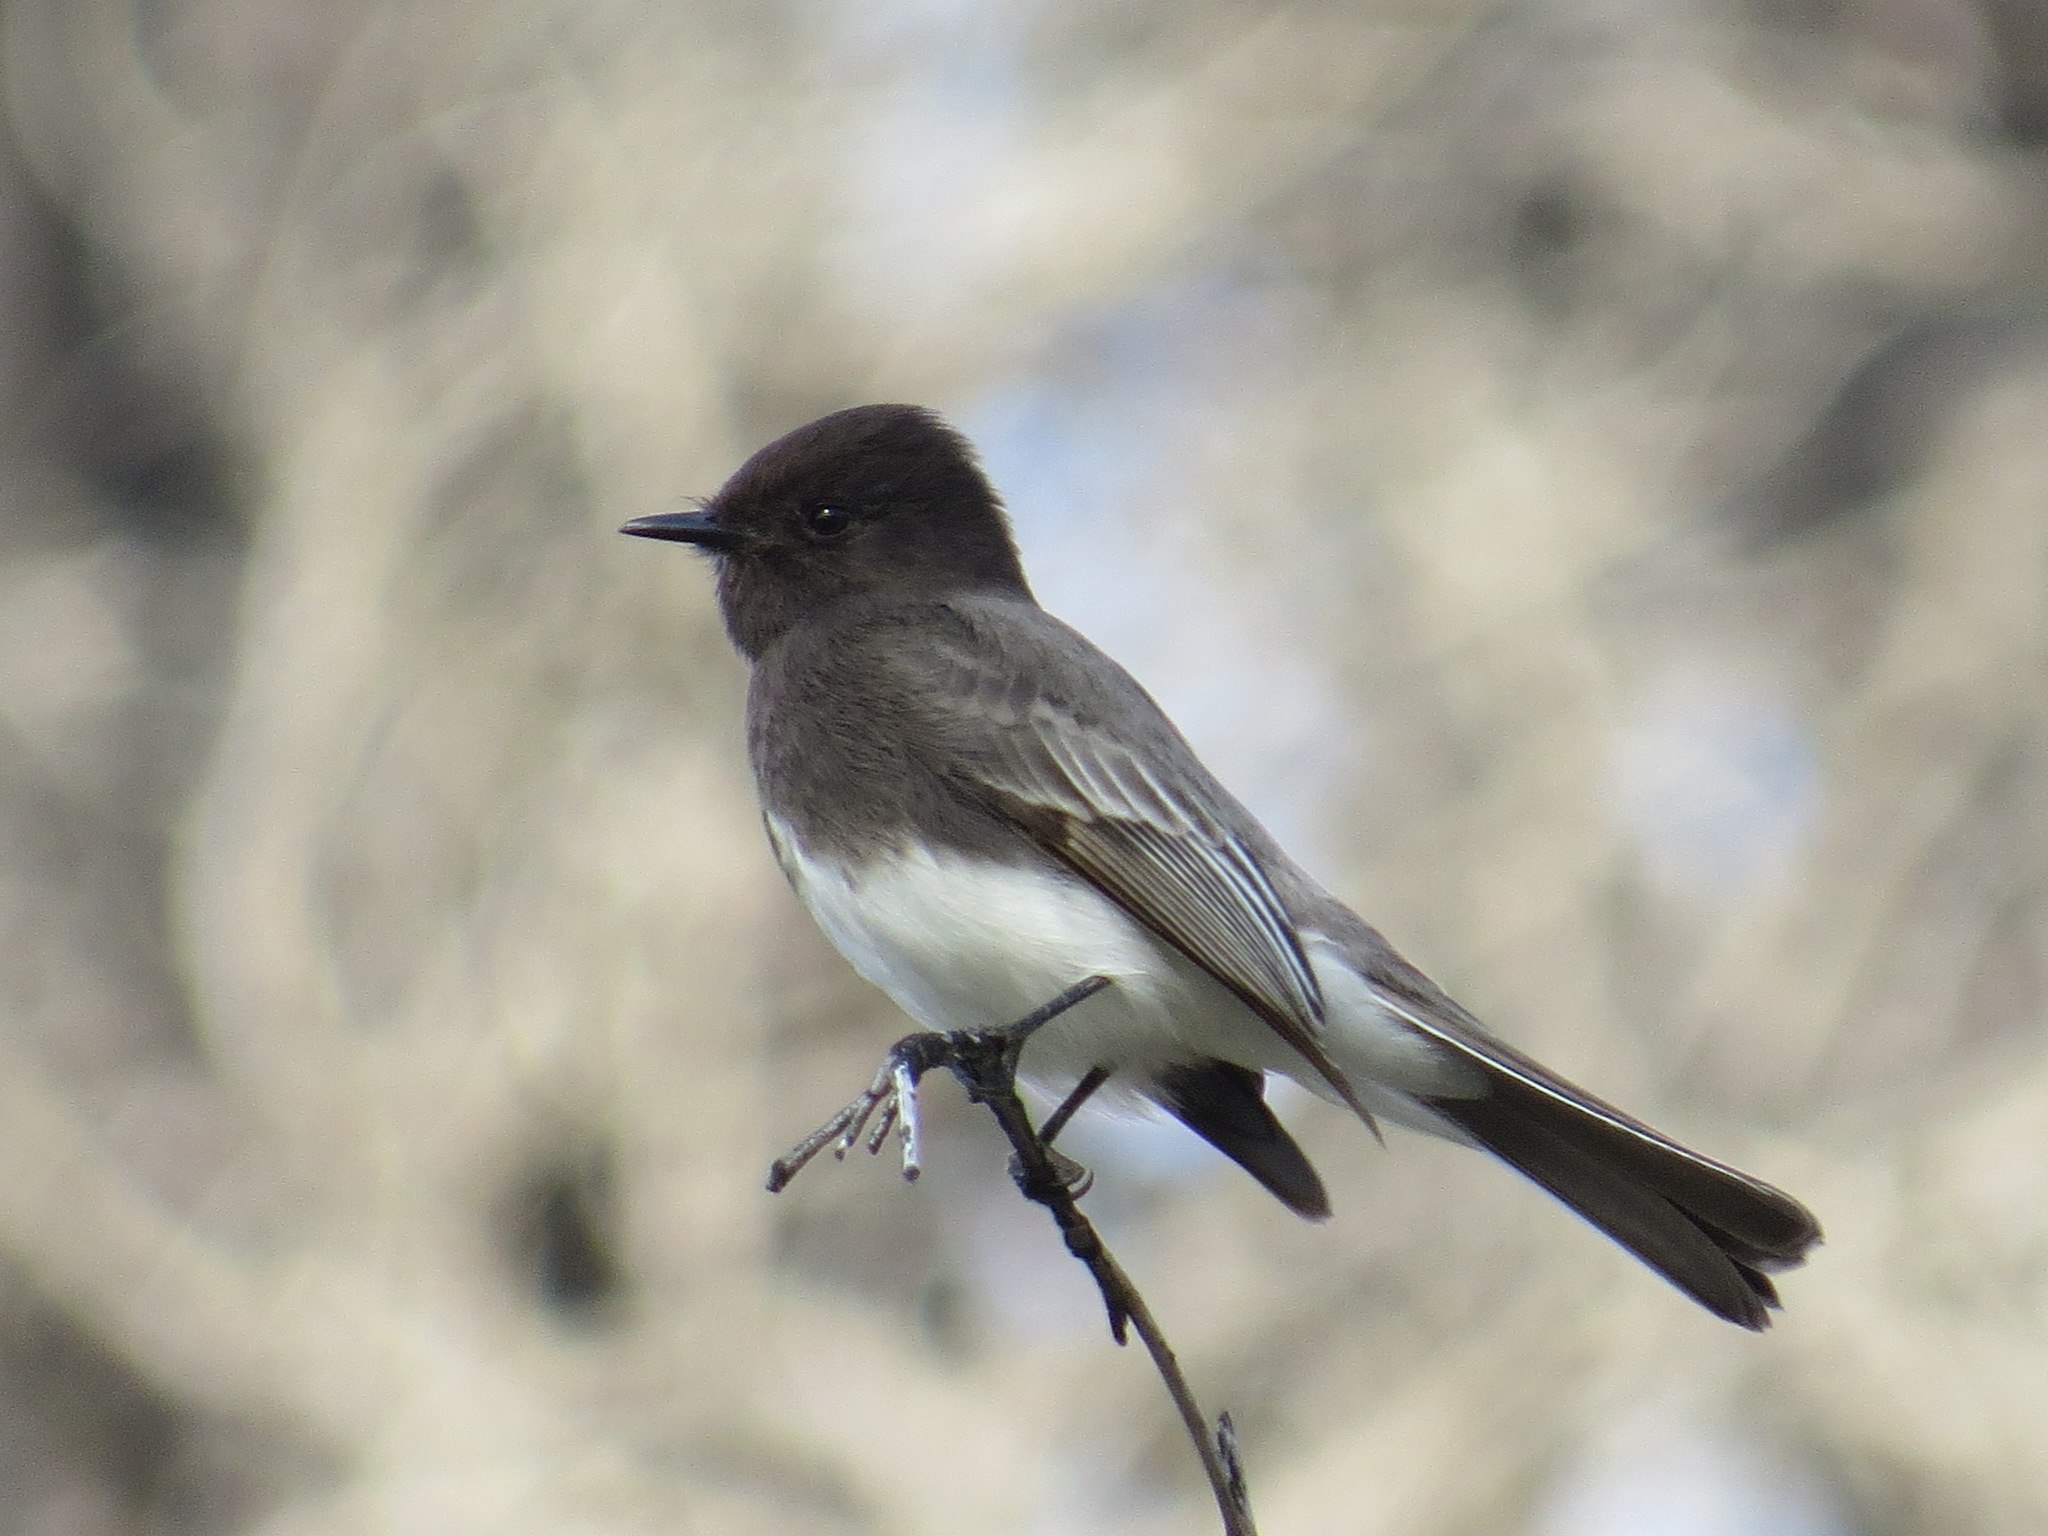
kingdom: Animalia
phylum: Chordata
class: Aves
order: Passeriformes
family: Tyrannidae
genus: Sayornis
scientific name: Sayornis nigricans
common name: Black phoebe
